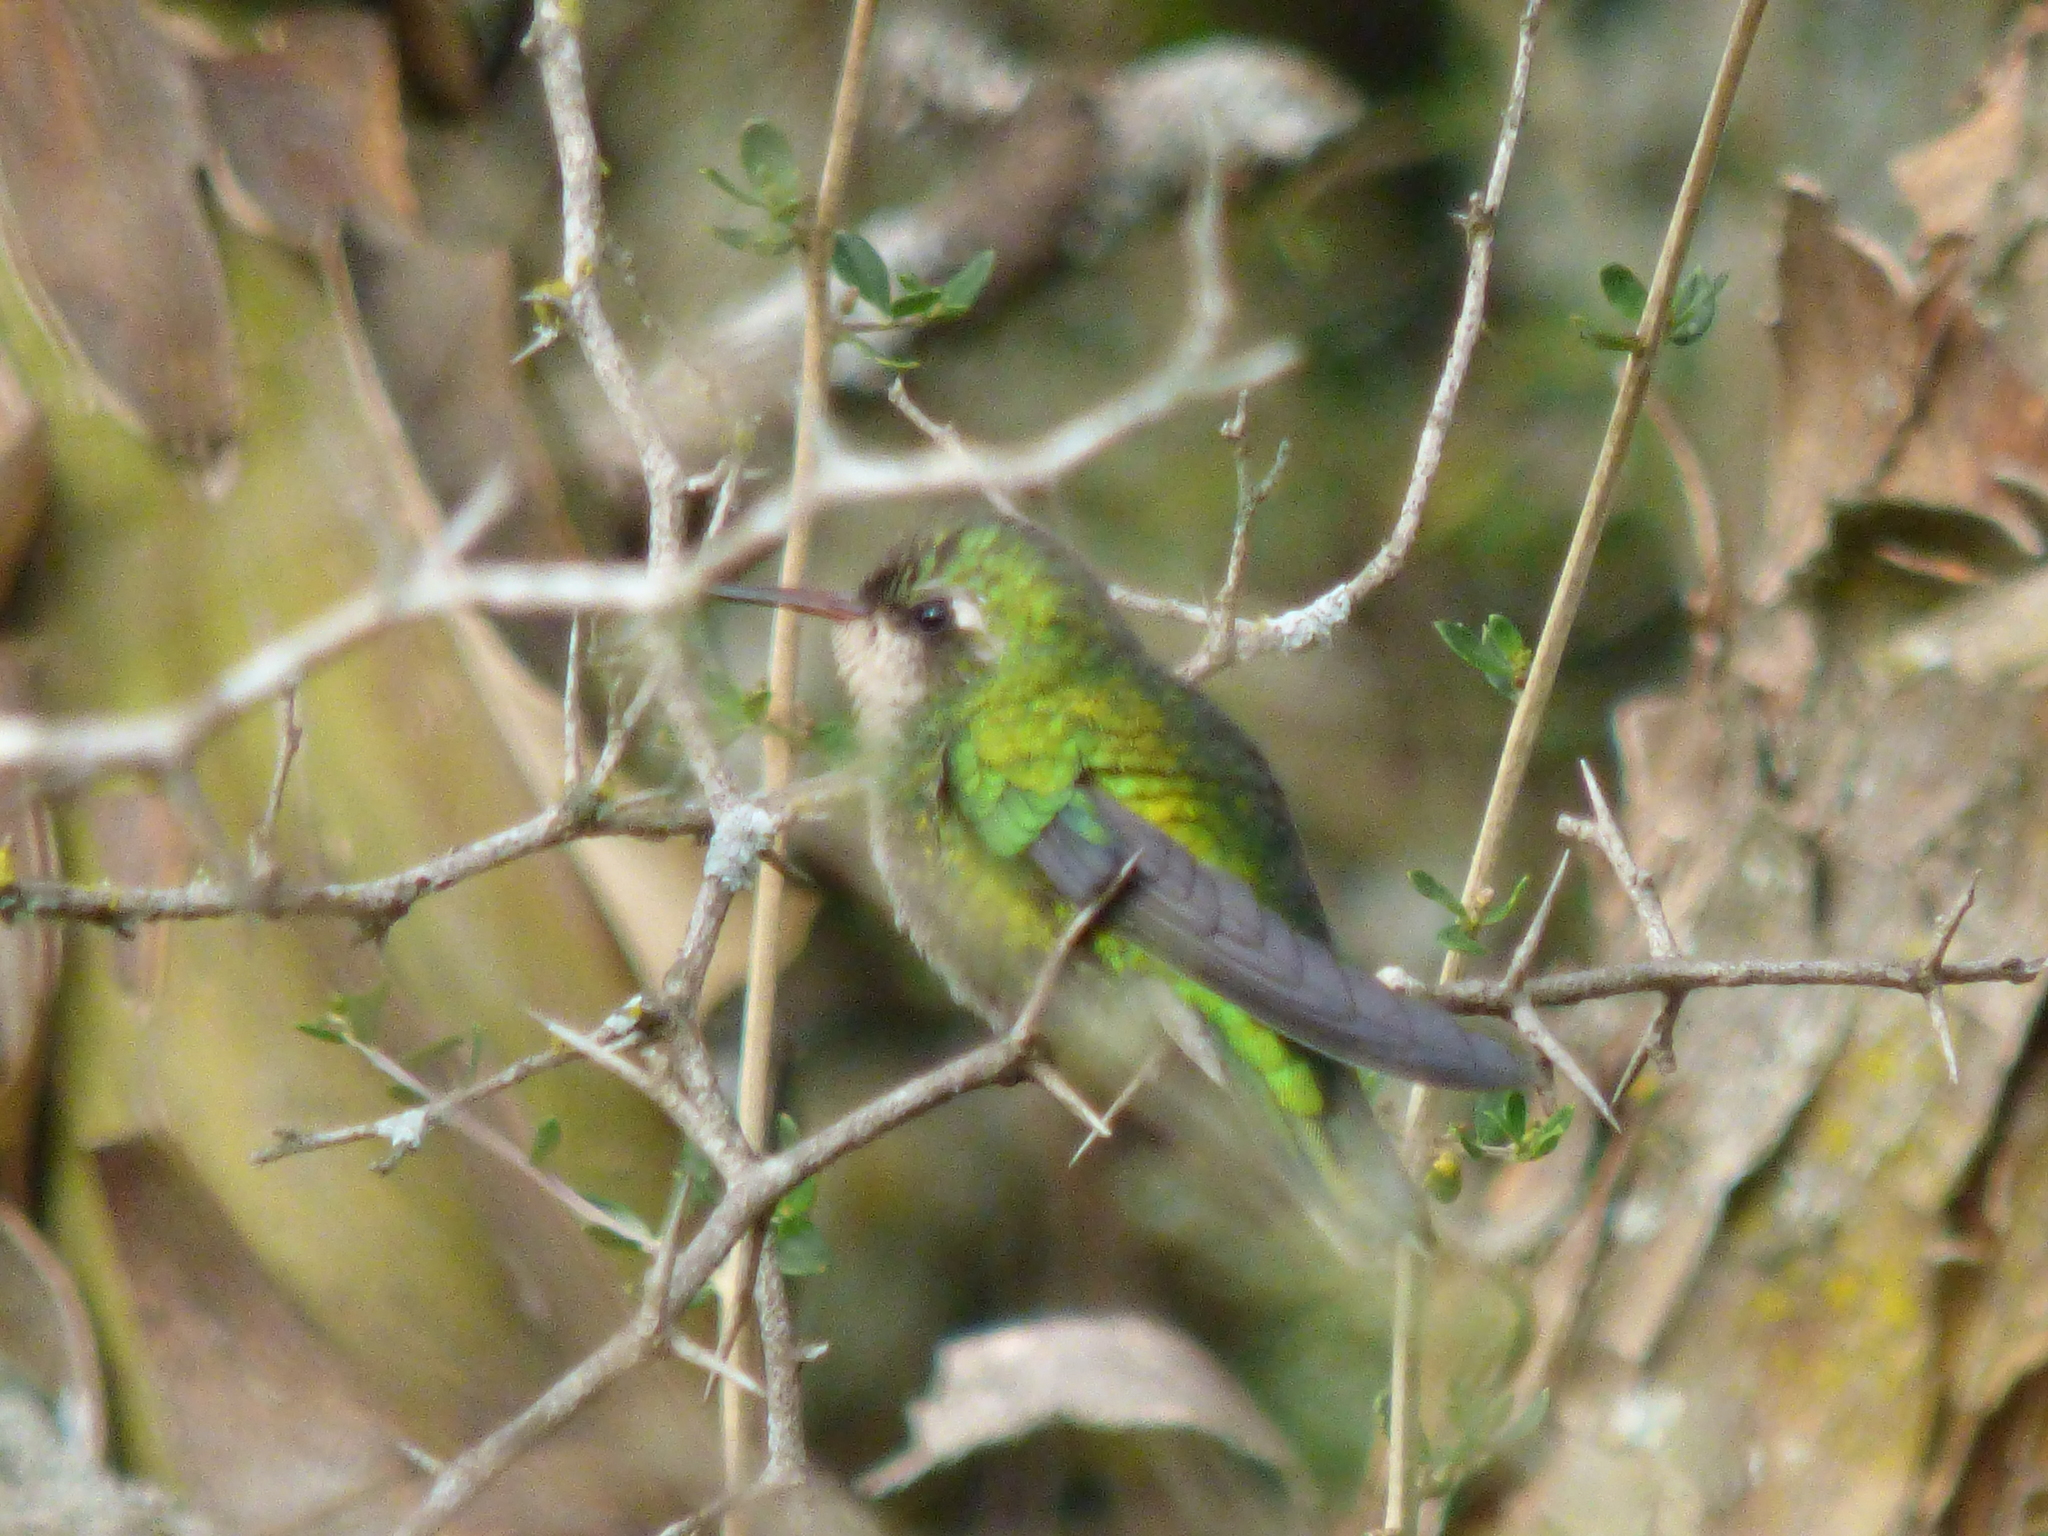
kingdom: Animalia
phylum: Chordata
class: Aves
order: Apodiformes
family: Trochilidae
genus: Chlorostilbon
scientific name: Chlorostilbon lucidus
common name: Glittering-bellied emerald
